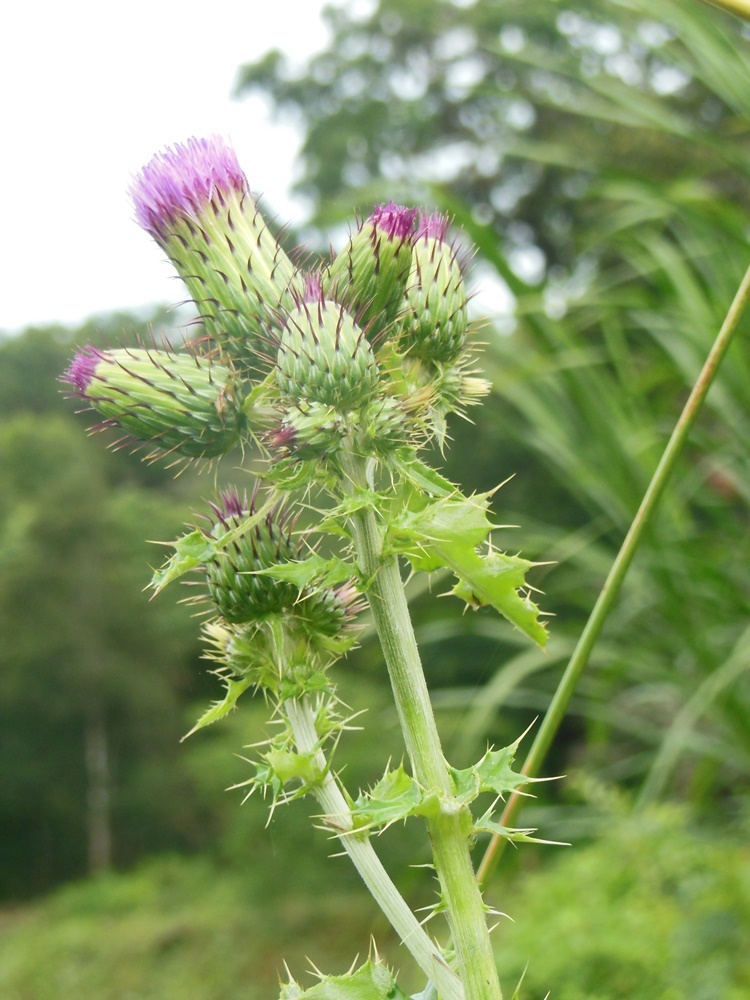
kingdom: Plantae
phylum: Tracheophyta
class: Magnoliopsida
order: Asterales
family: Asteraceae
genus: Cirsium
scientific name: Cirsium mexicanum
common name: Mexican thistle
